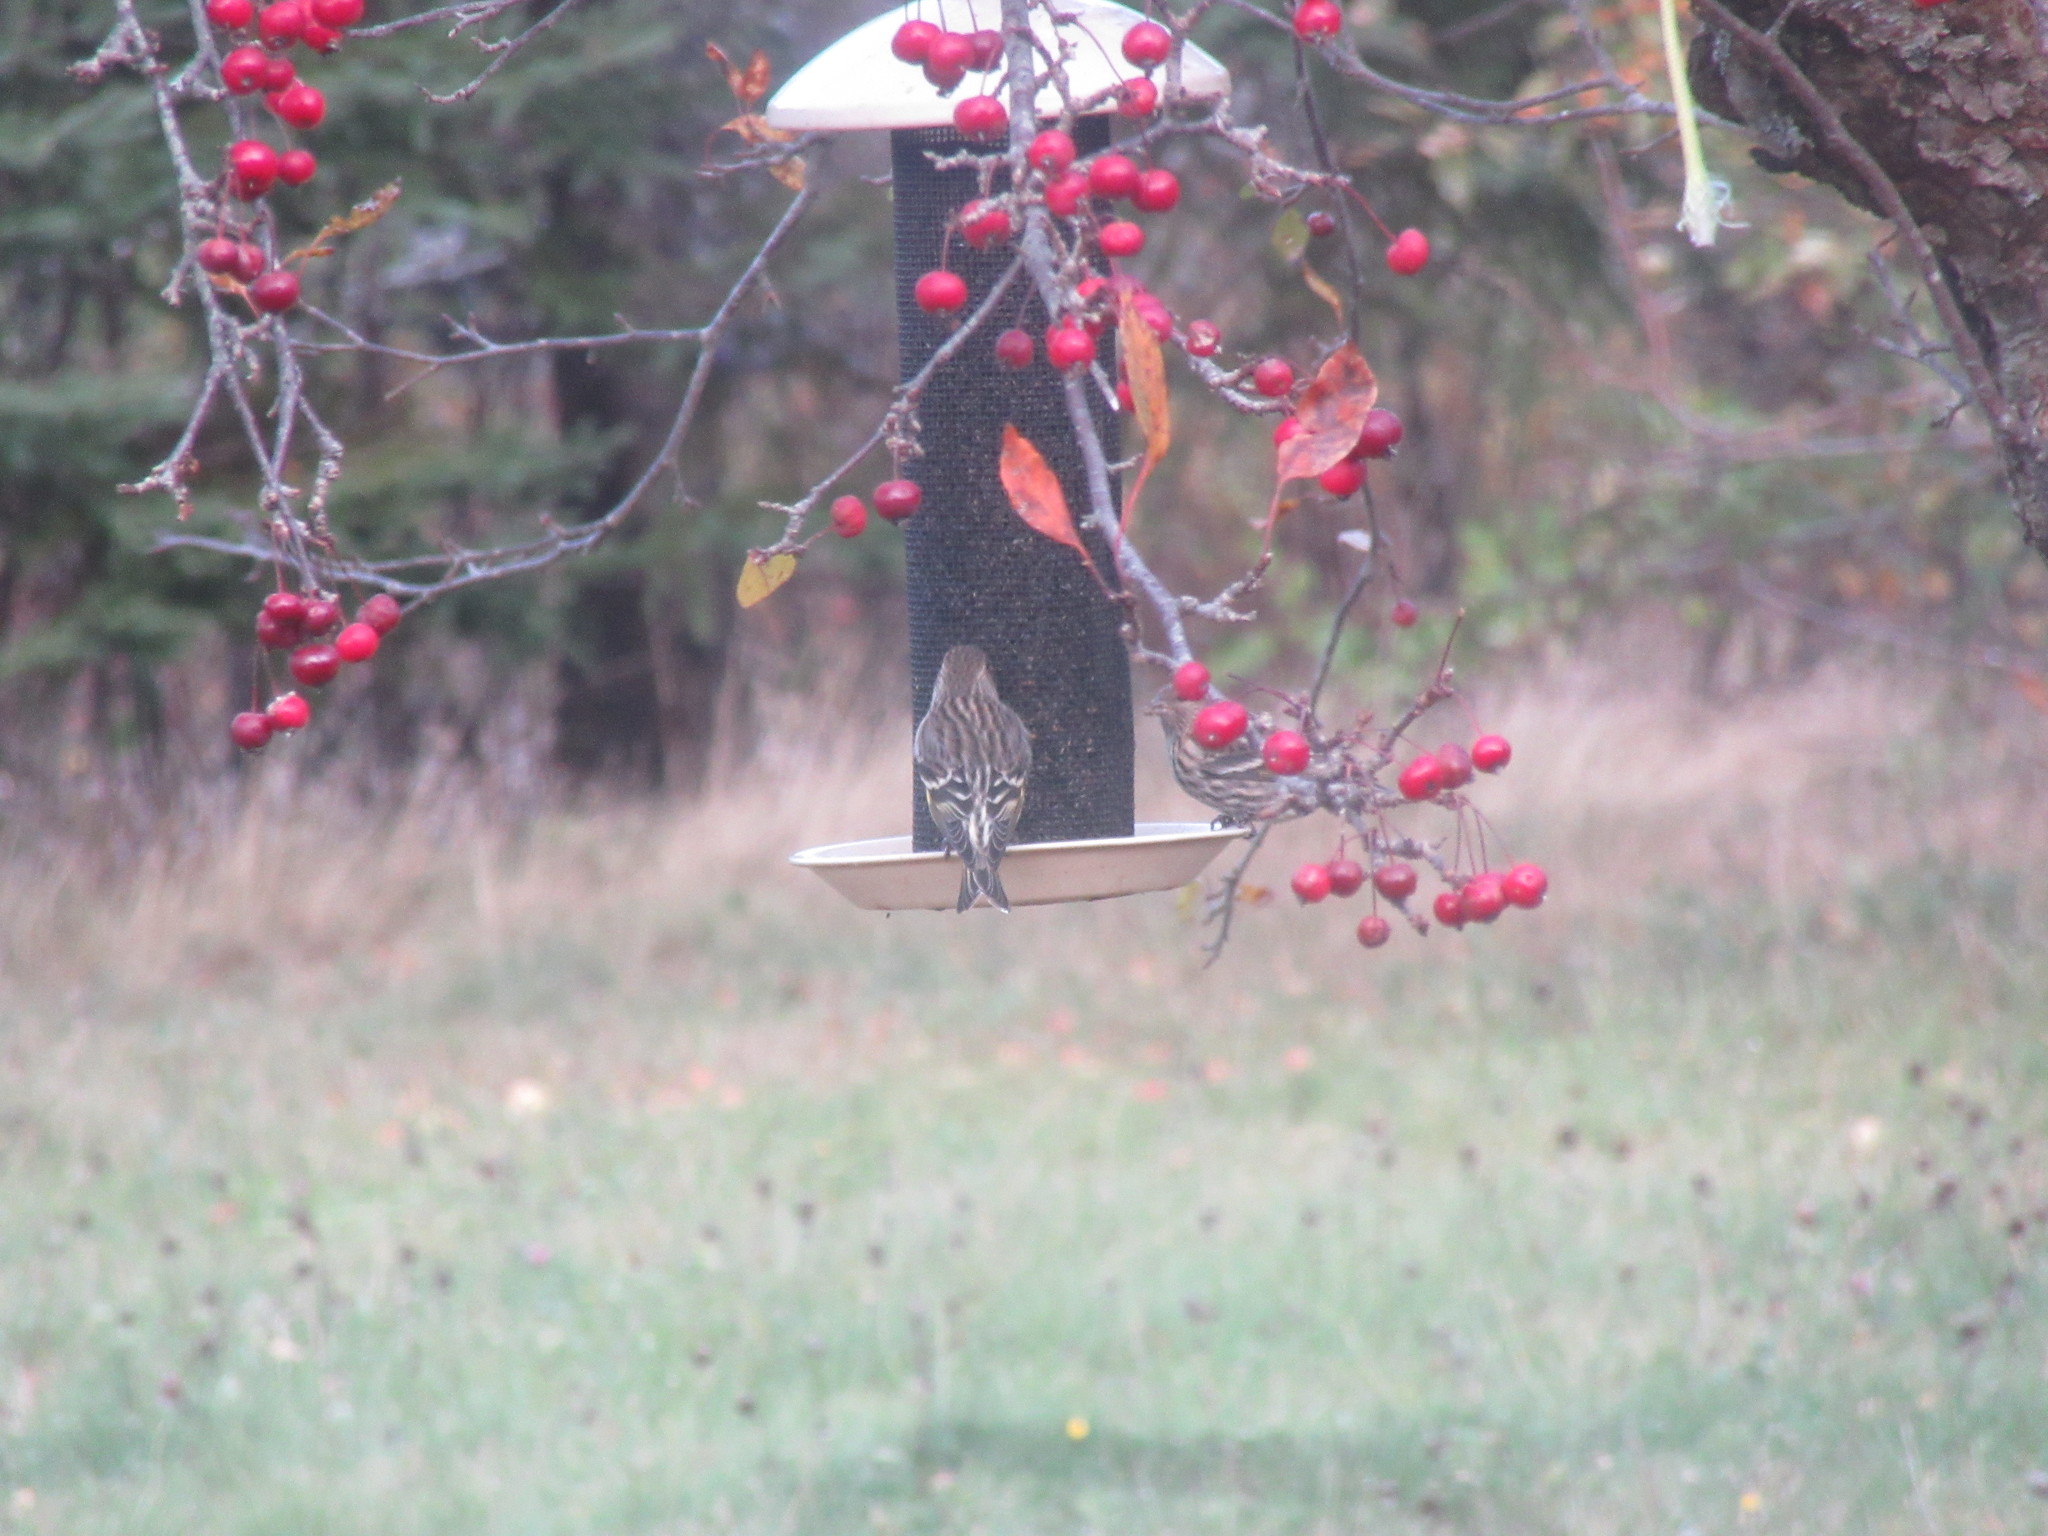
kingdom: Animalia
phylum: Chordata
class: Aves
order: Passeriformes
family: Fringillidae
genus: Spinus
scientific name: Spinus pinus
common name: Pine siskin
